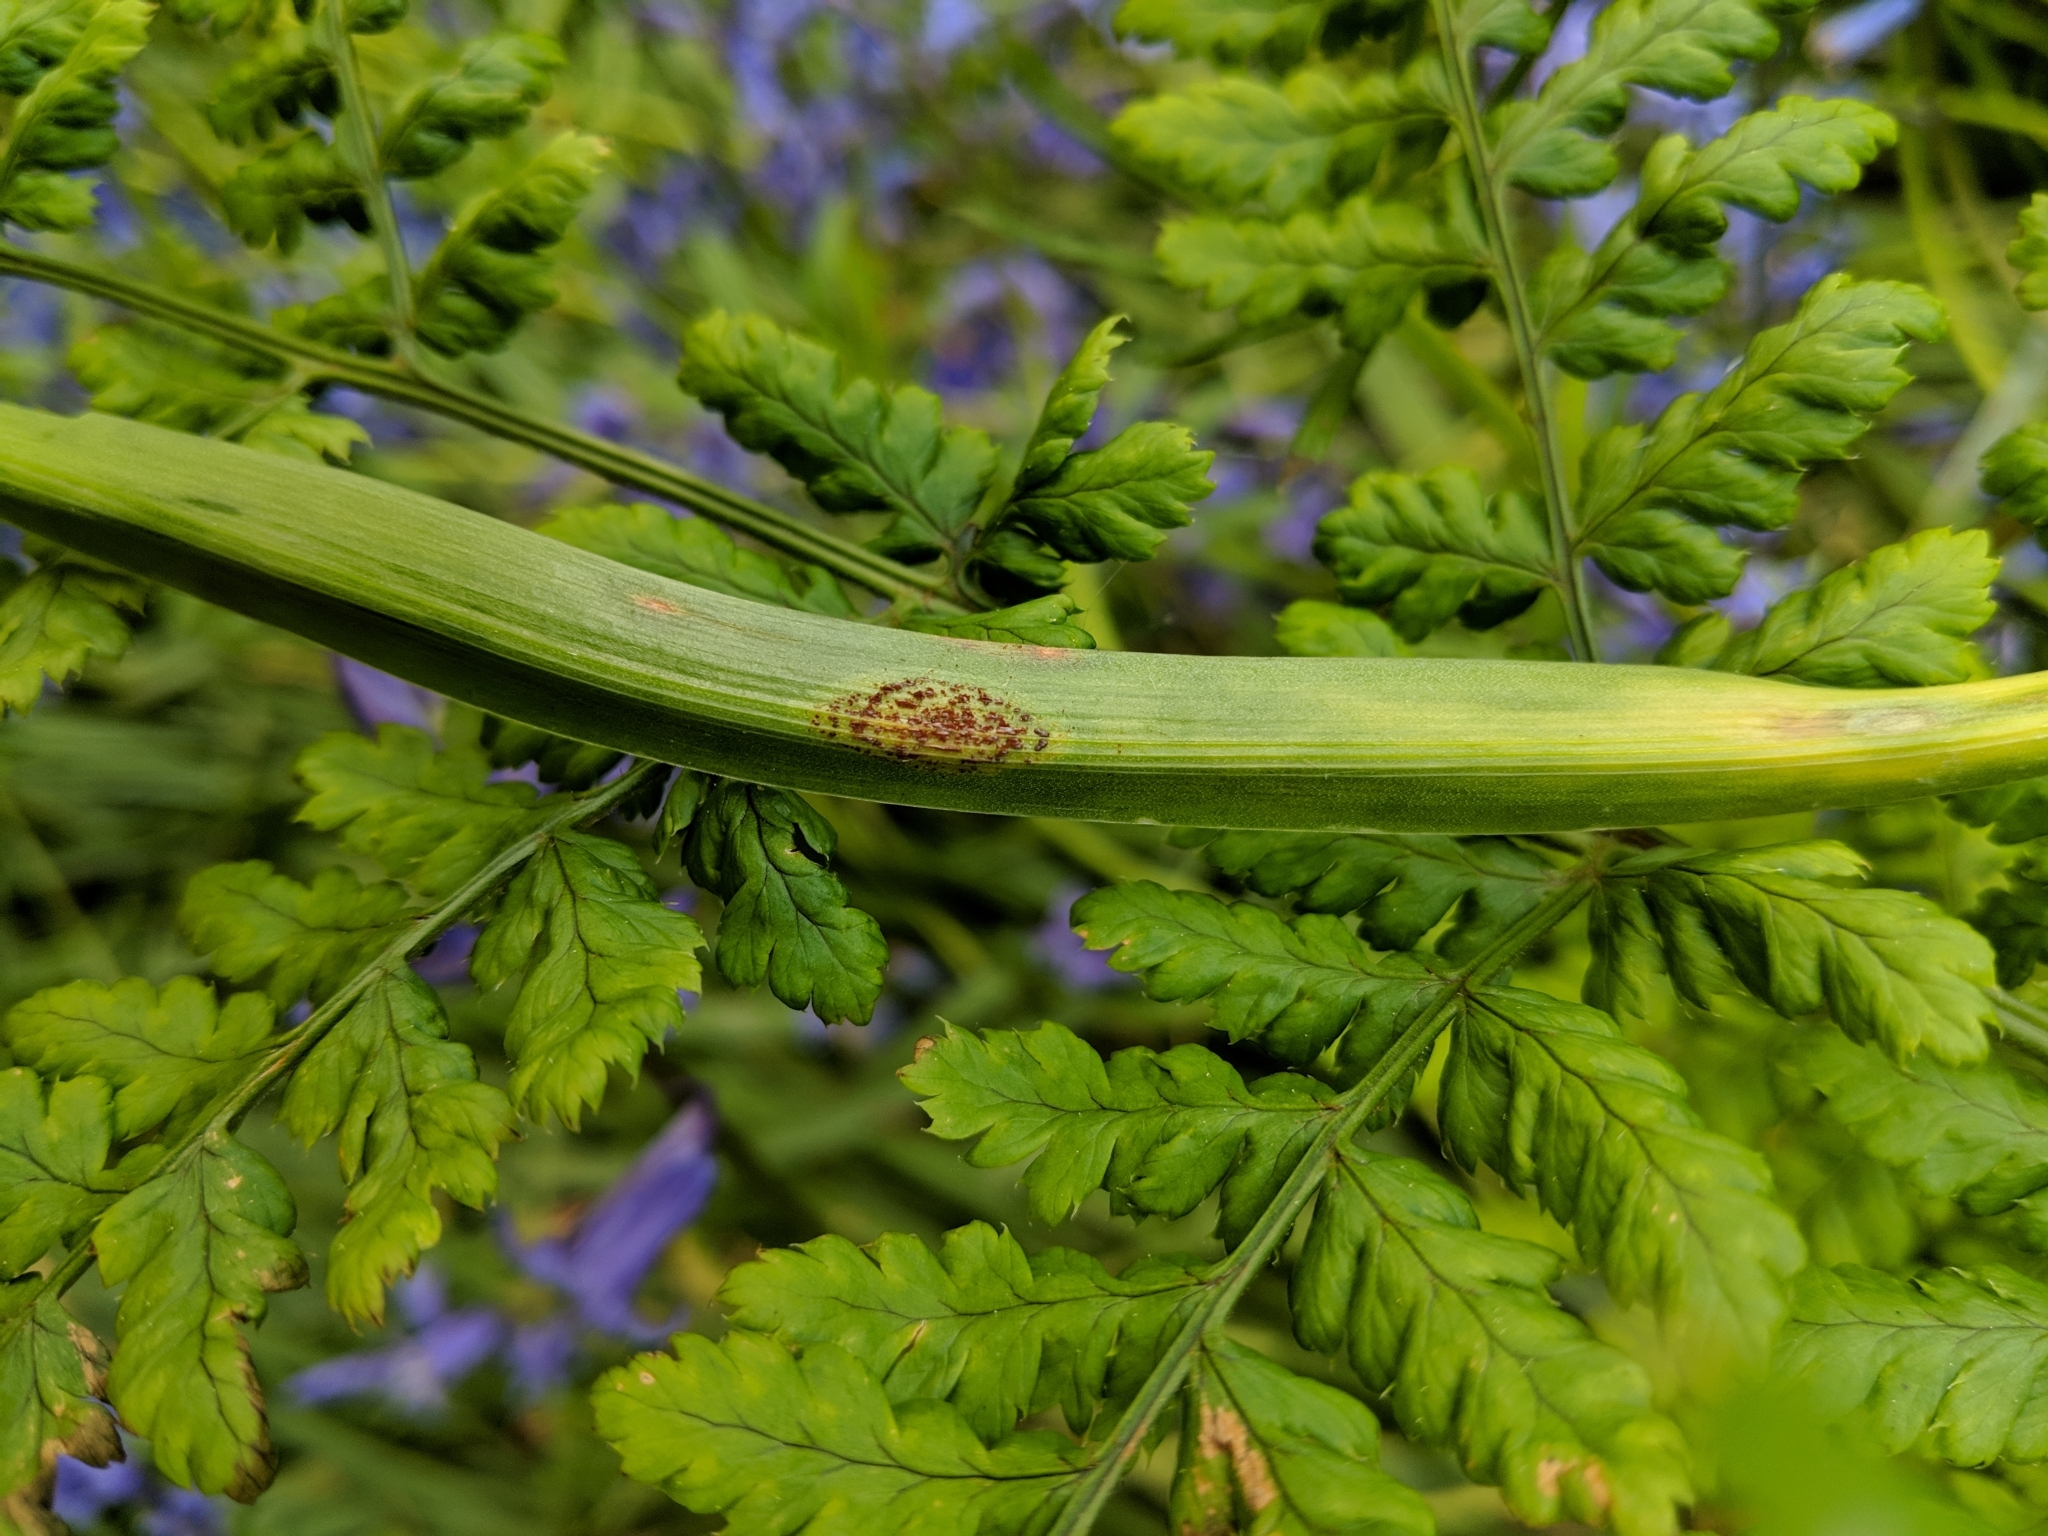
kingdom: Fungi
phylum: Basidiomycota
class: Pucciniomycetes
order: Pucciniales
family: Pucciniaceae
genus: Uromyces
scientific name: Uromyces hyacinthi
